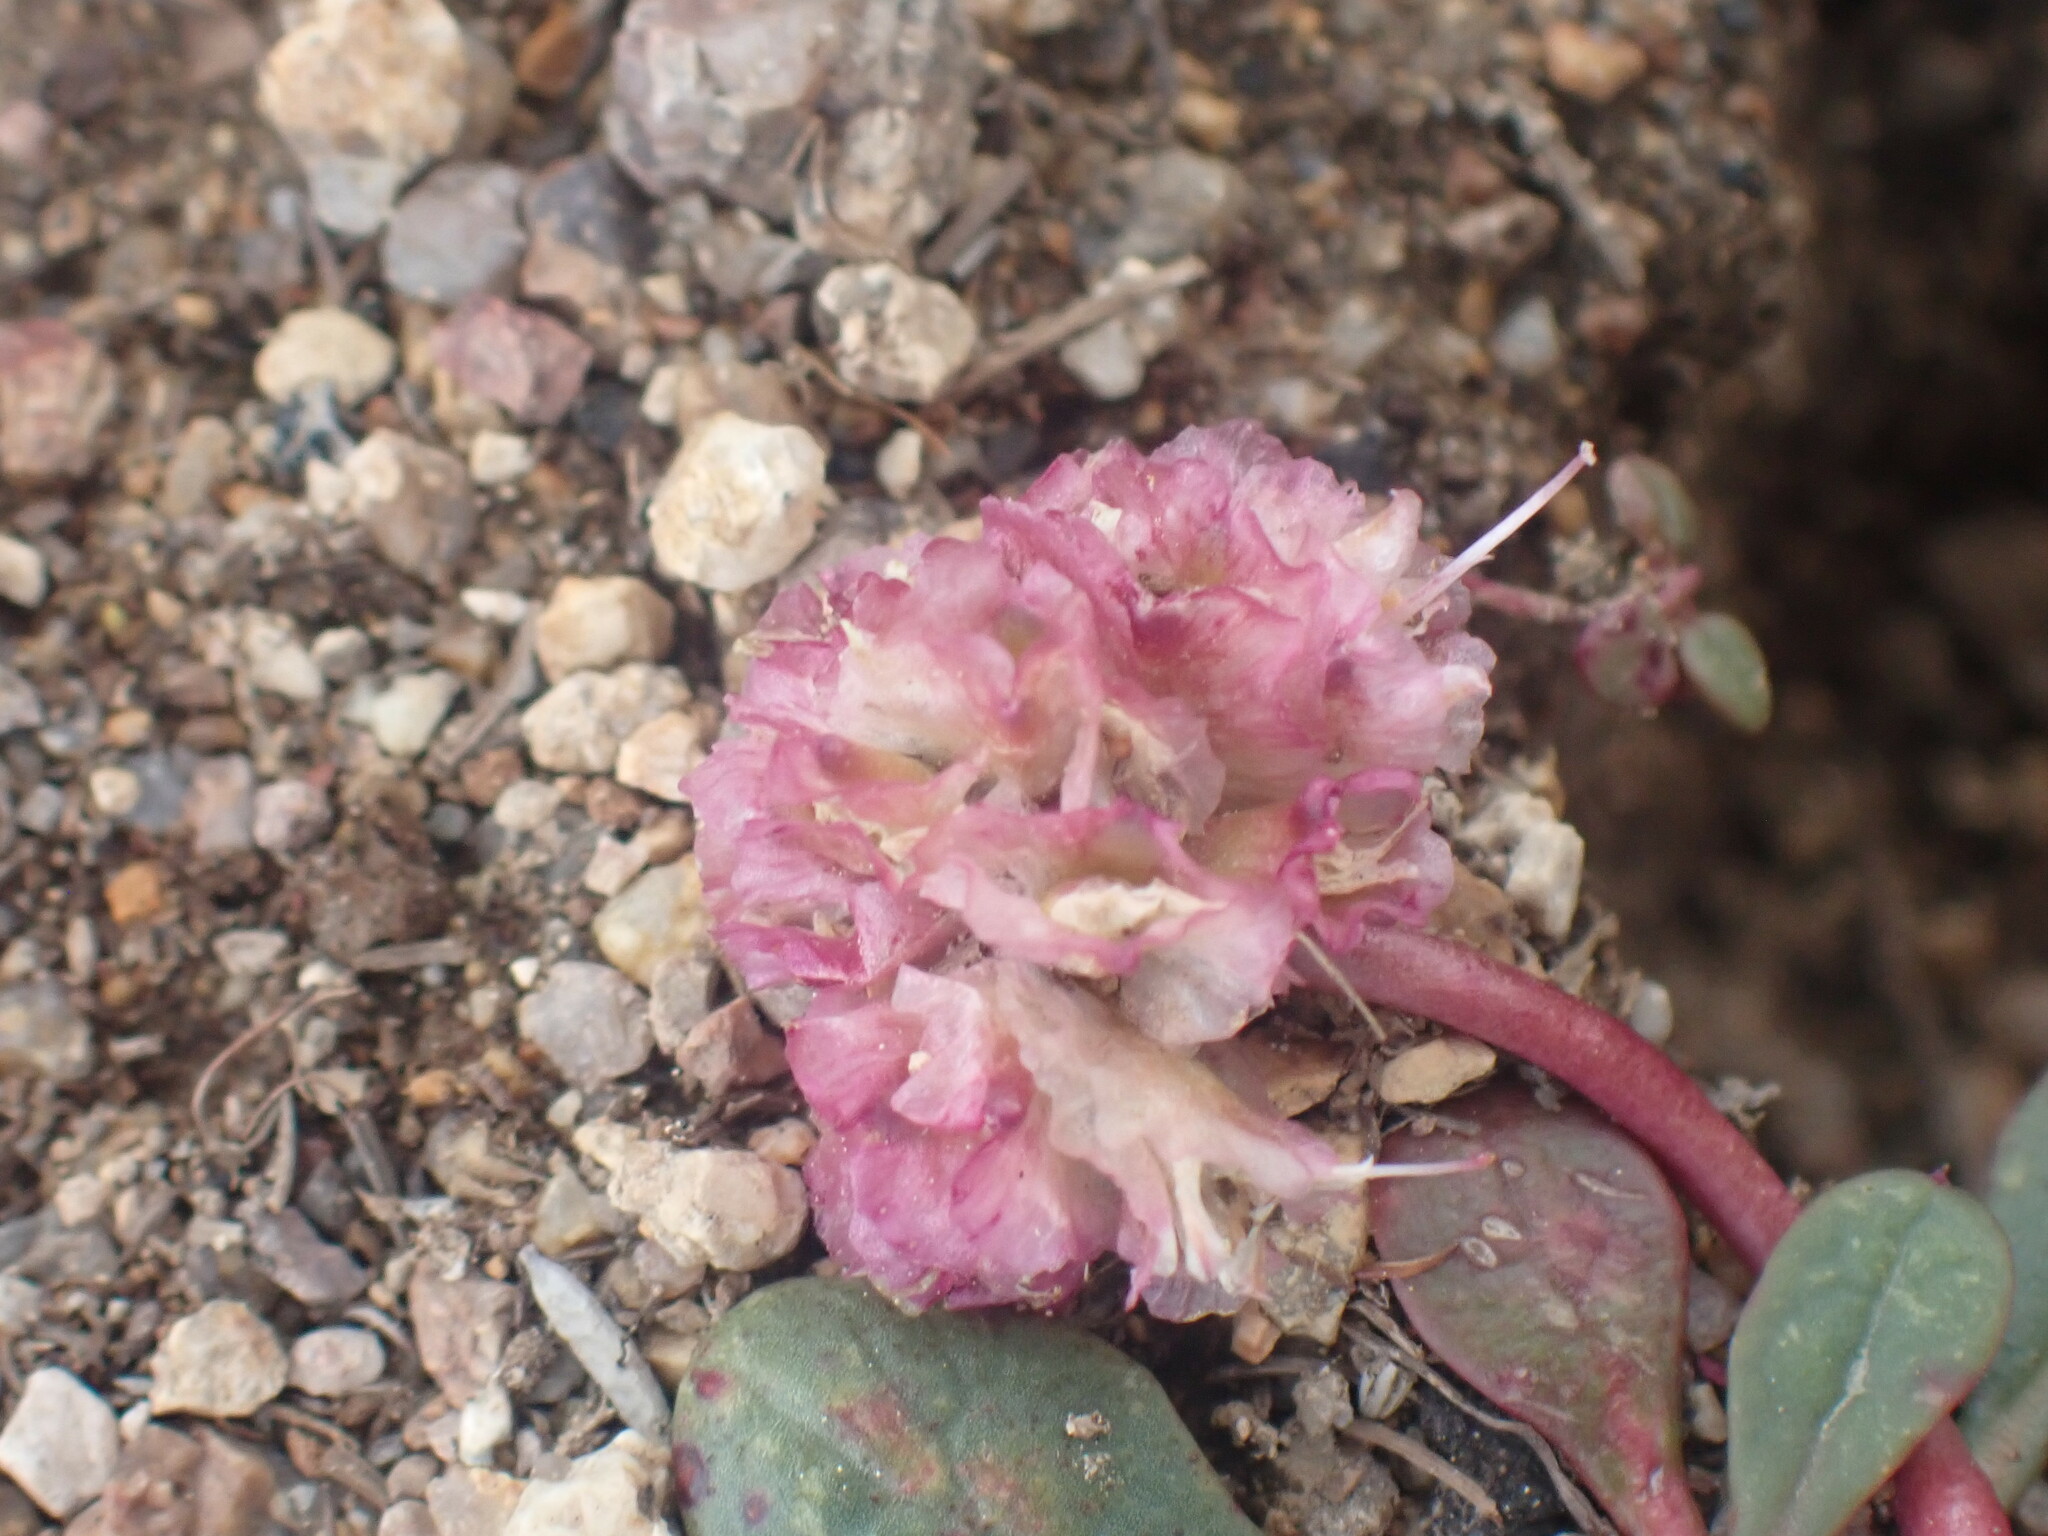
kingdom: Plantae
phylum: Tracheophyta
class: Magnoliopsida
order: Caryophyllales
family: Montiaceae
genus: Calyptridium
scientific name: Calyptridium umbellatum
